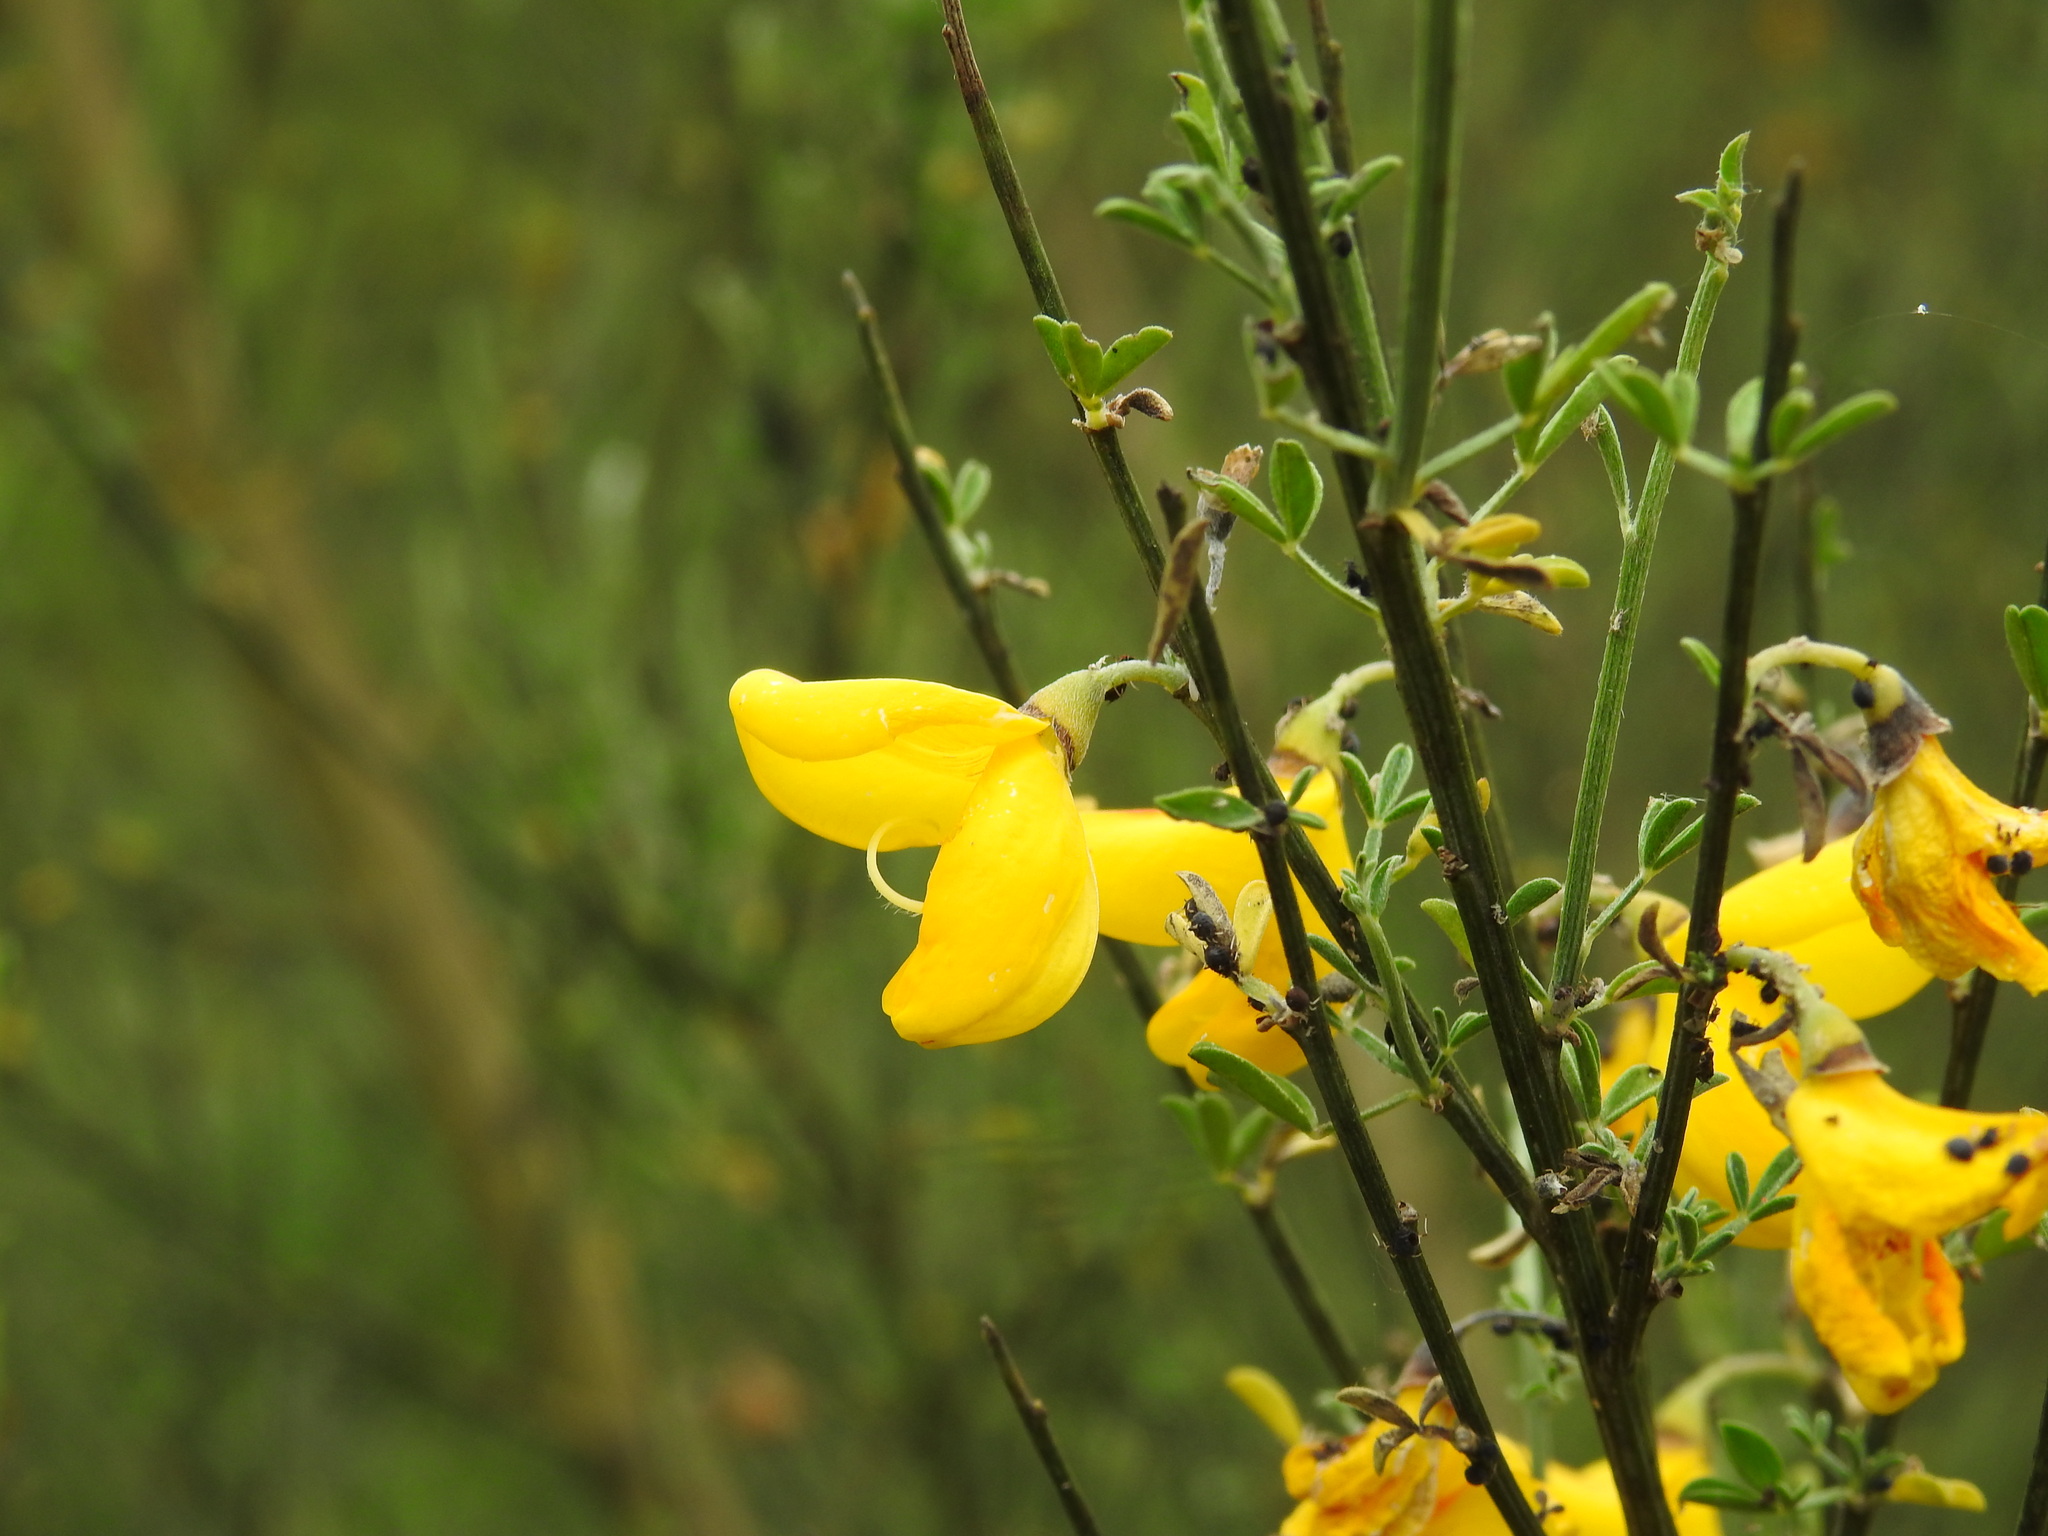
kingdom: Plantae
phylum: Tracheophyta
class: Magnoliopsida
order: Fabales
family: Fabaceae
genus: Cytisus
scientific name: Cytisus striatus
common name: Hairy-fruited broom
